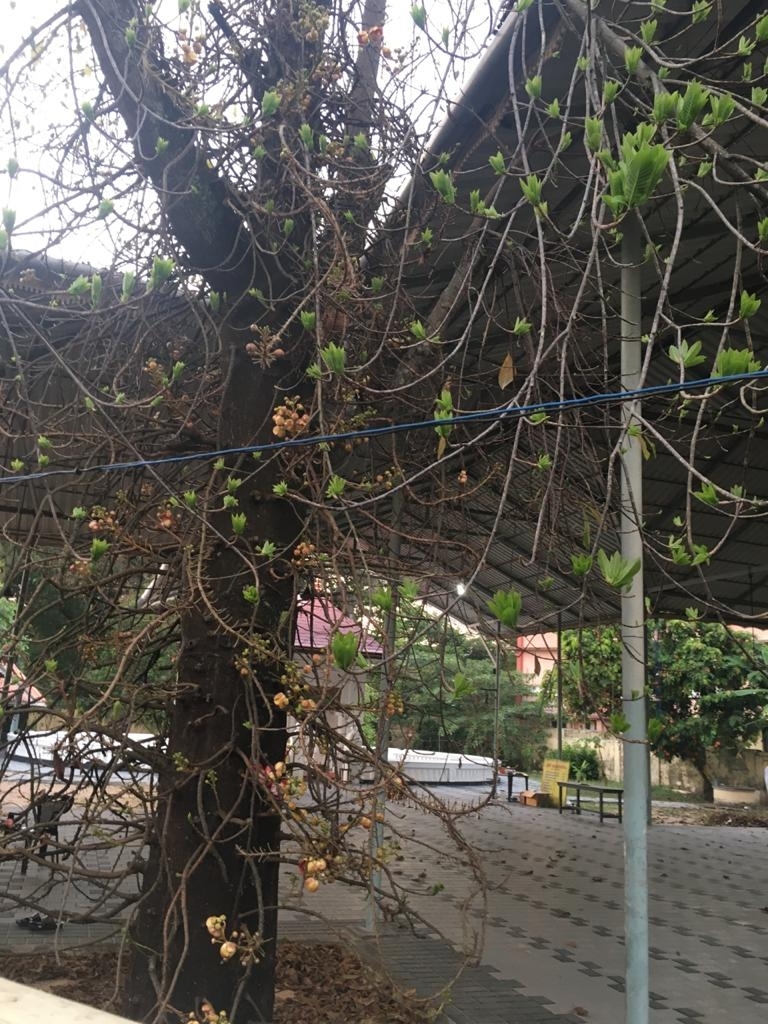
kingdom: Plantae
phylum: Tracheophyta
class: Magnoliopsida
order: Ericales
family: Lecythidaceae
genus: Couroupita
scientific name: Couroupita guianensis
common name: Cannonball tree
